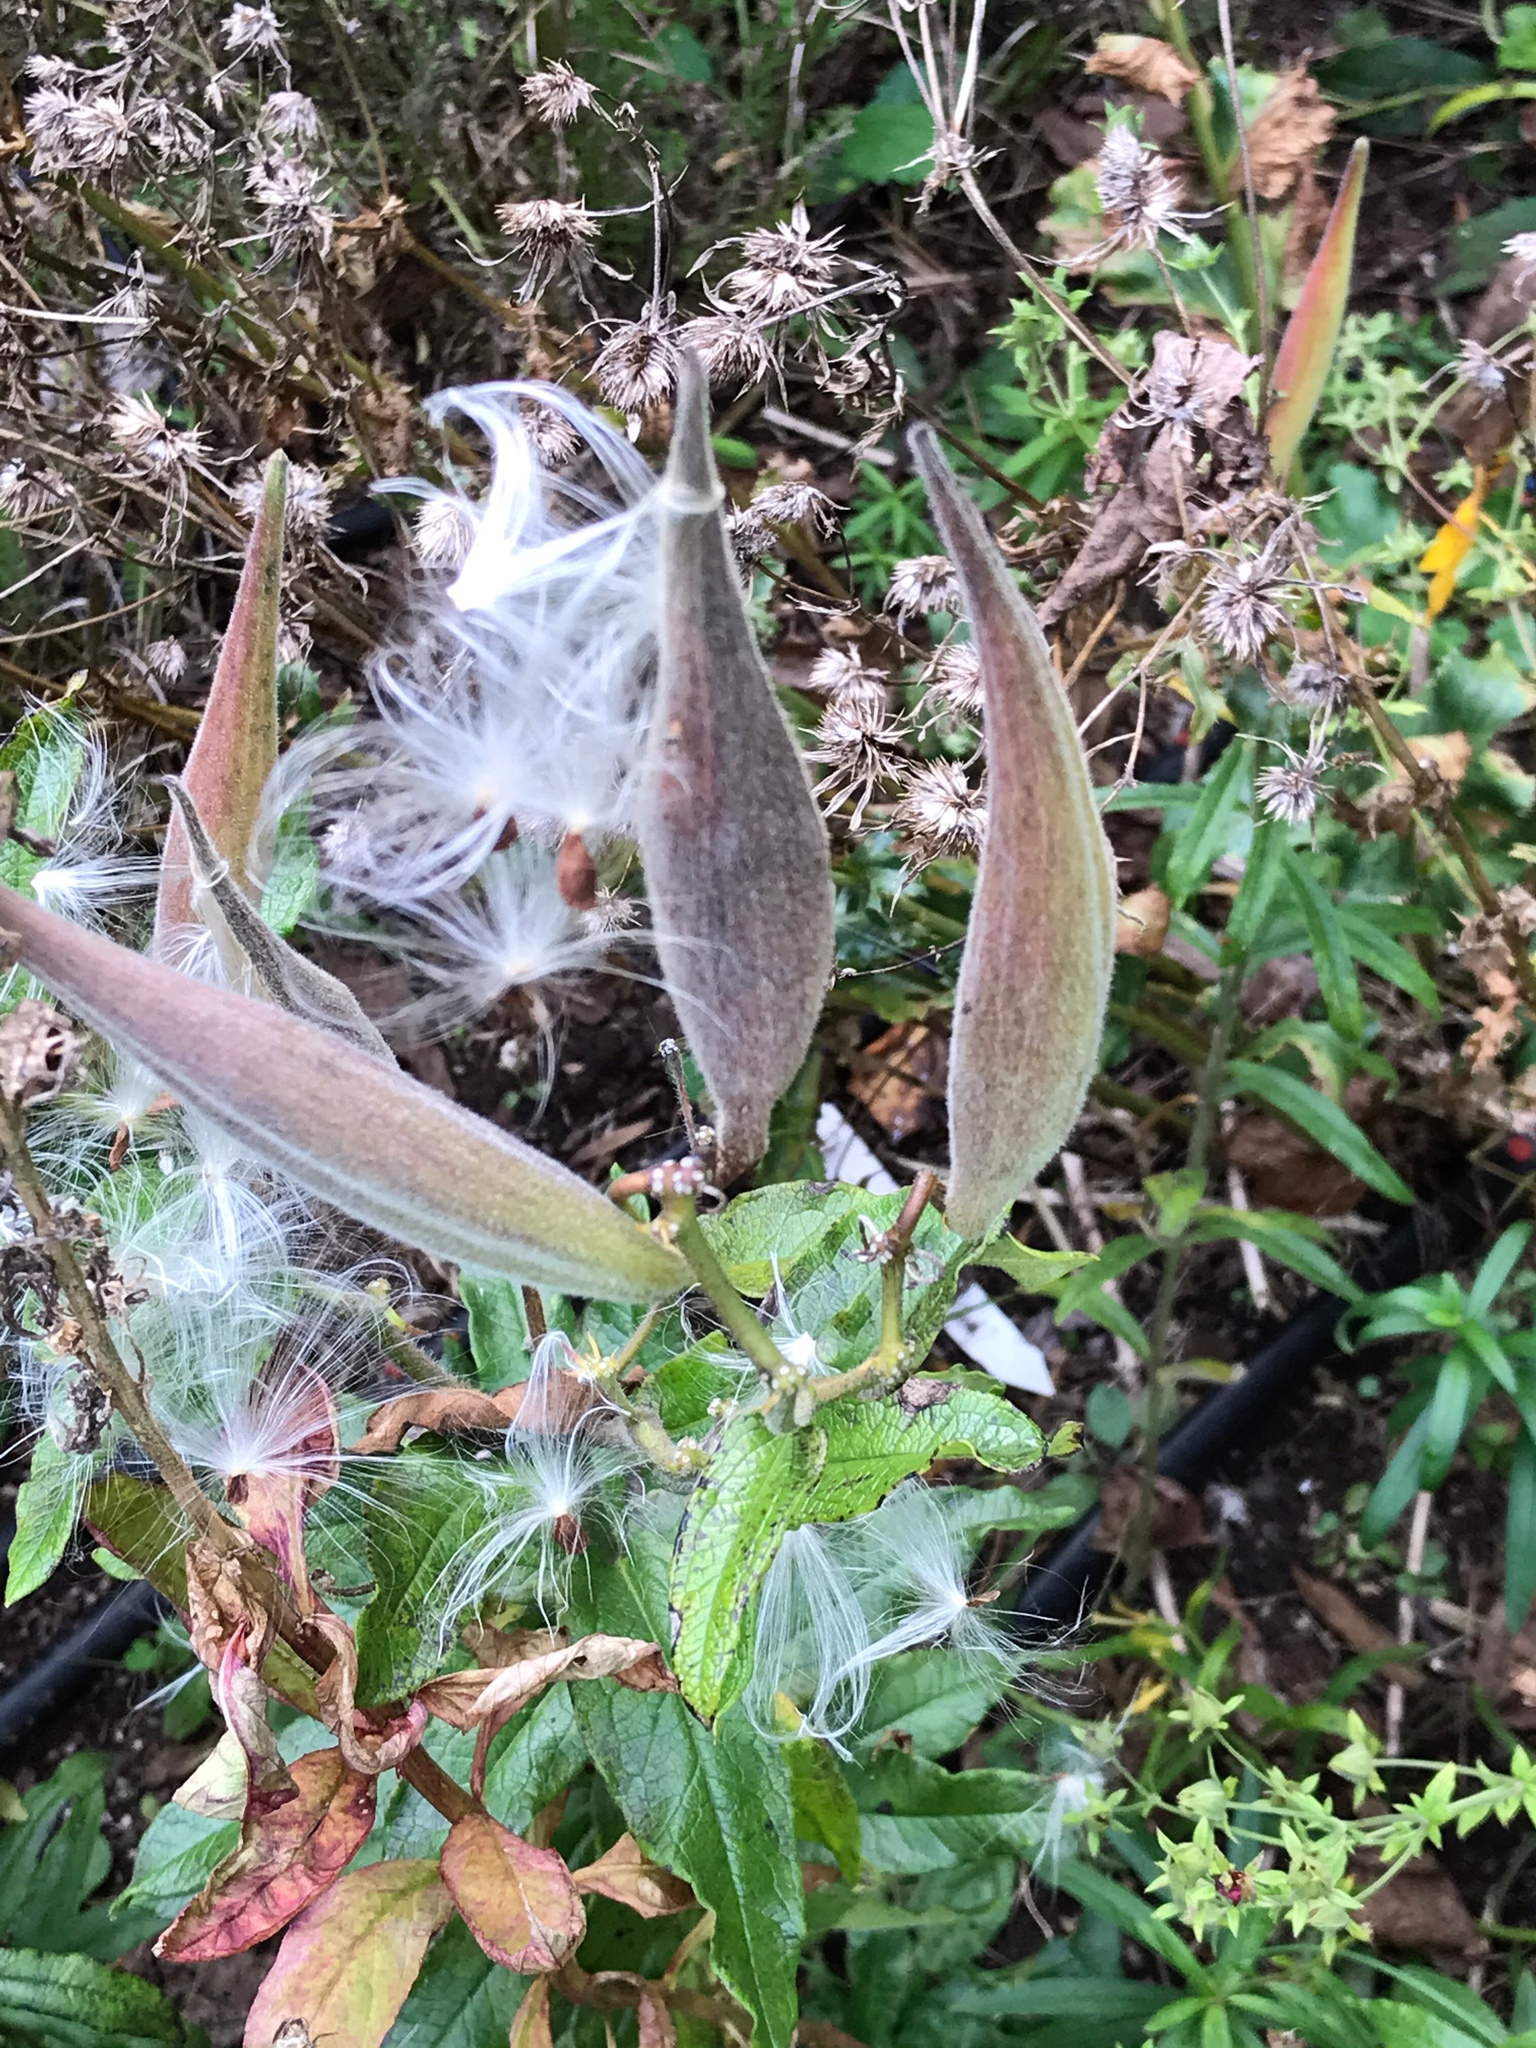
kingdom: Plantae
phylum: Tracheophyta
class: Magnoliopsida
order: Gentianales
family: Apocynaceae
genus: Asclepias
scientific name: Asclepias tuberosa
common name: Butterfly milkweed
